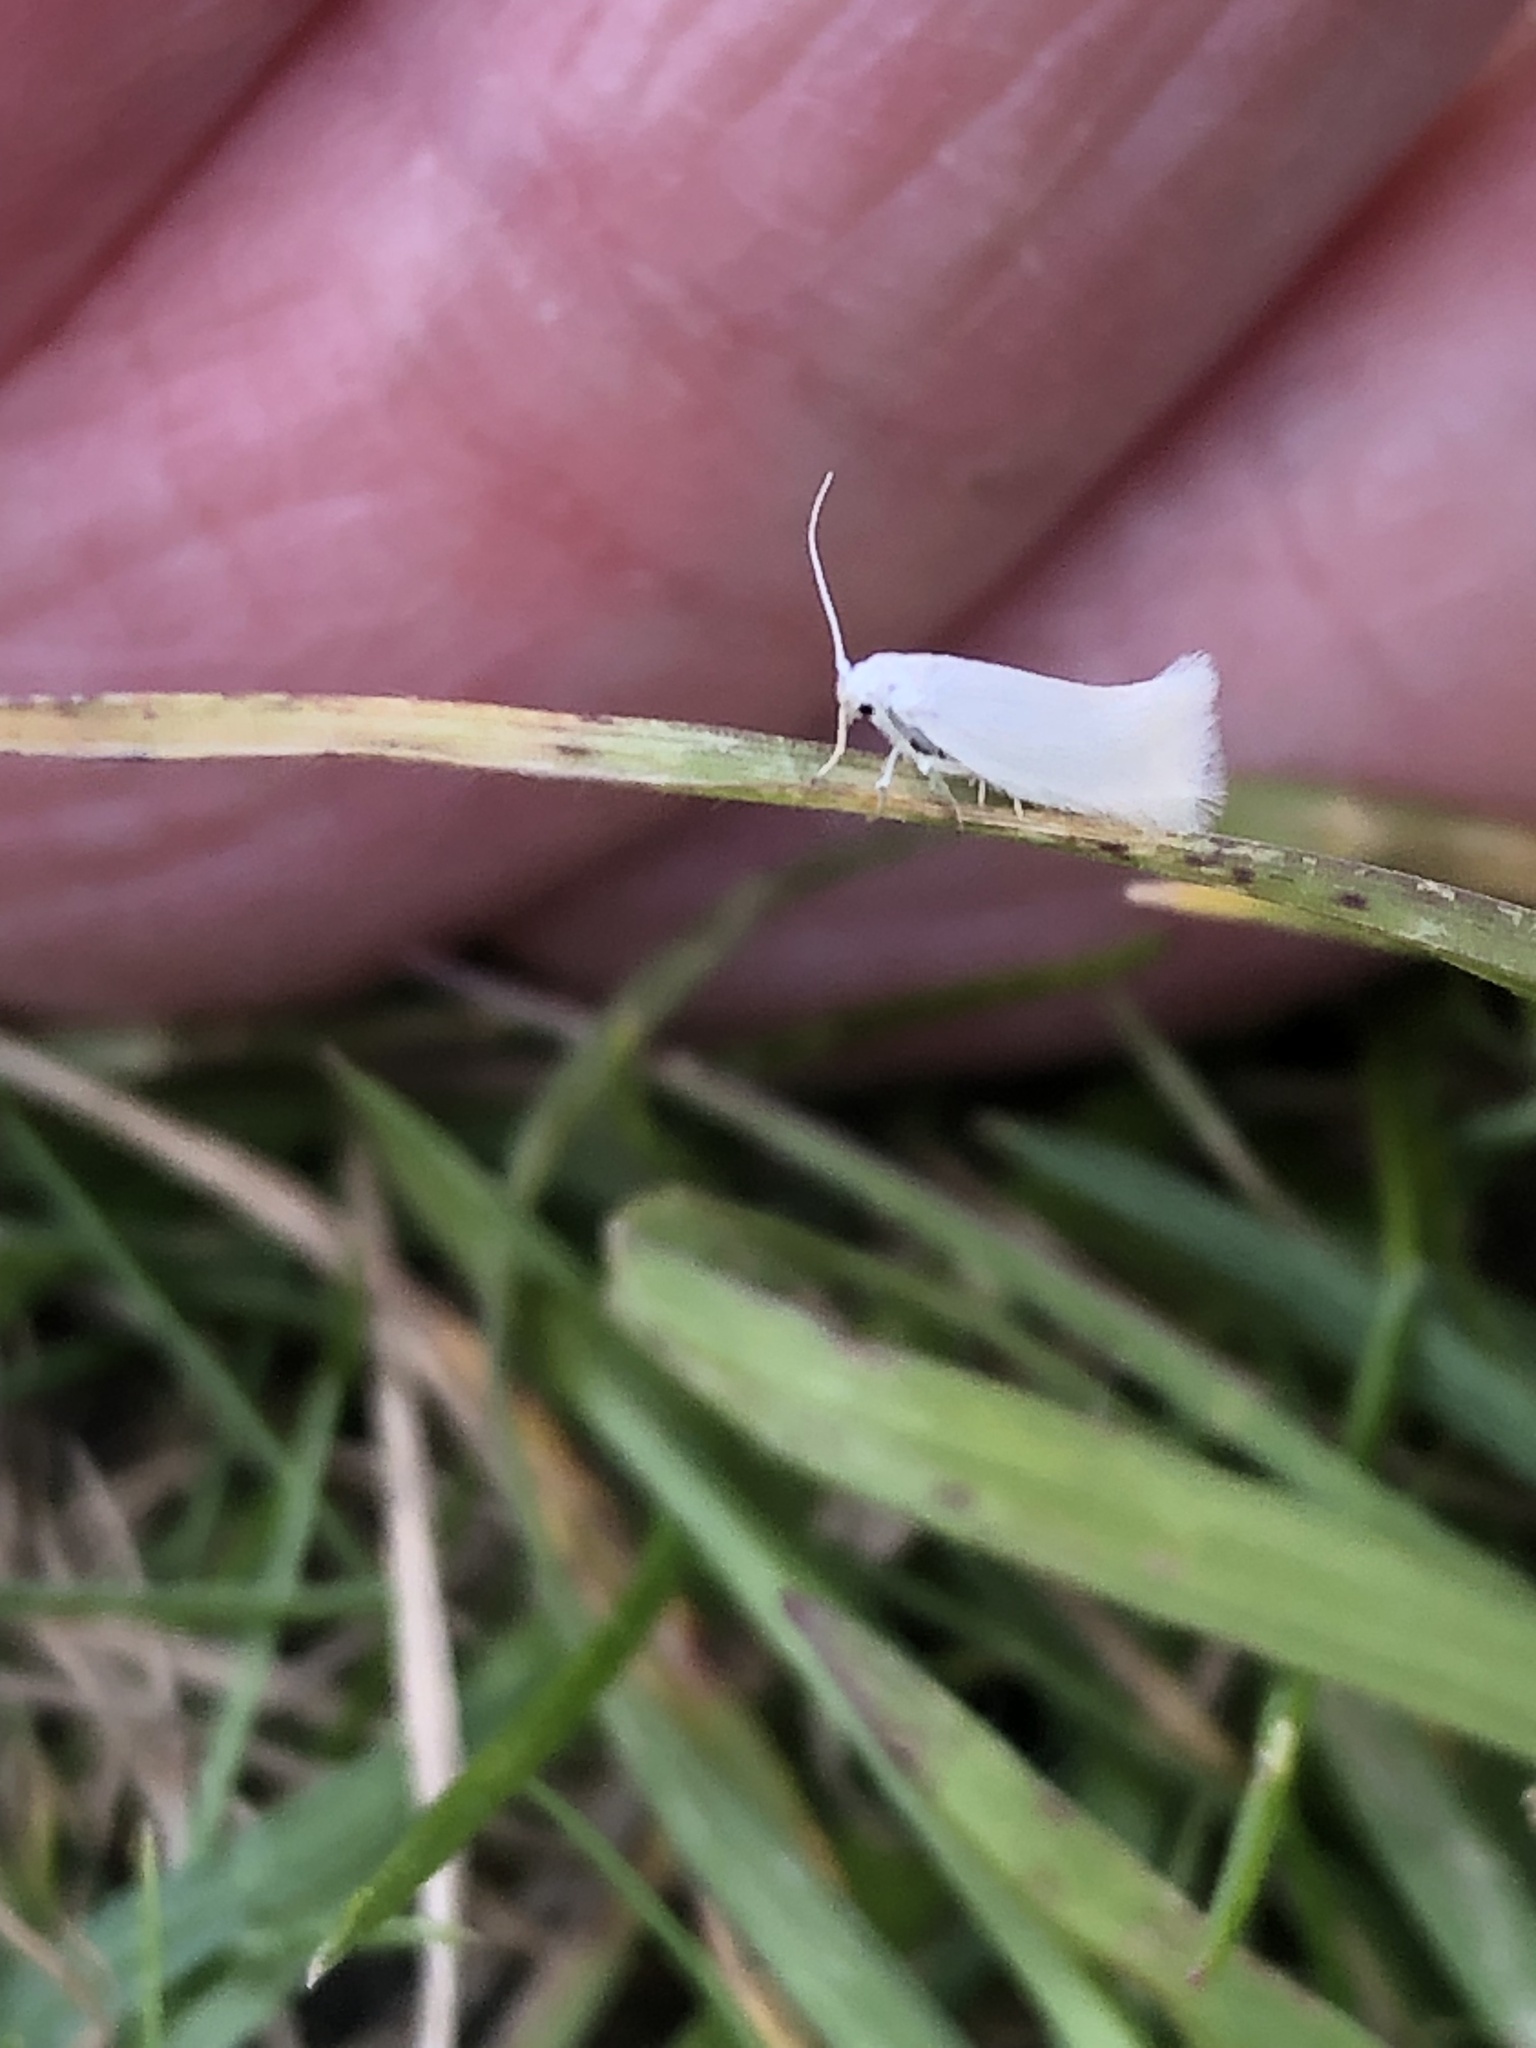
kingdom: Animalia
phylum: Arthropoda
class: Insecta
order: Lepidoptera
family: Elachistidae
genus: Elachista
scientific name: Elachista argentella
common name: Swan-feather dwarf
